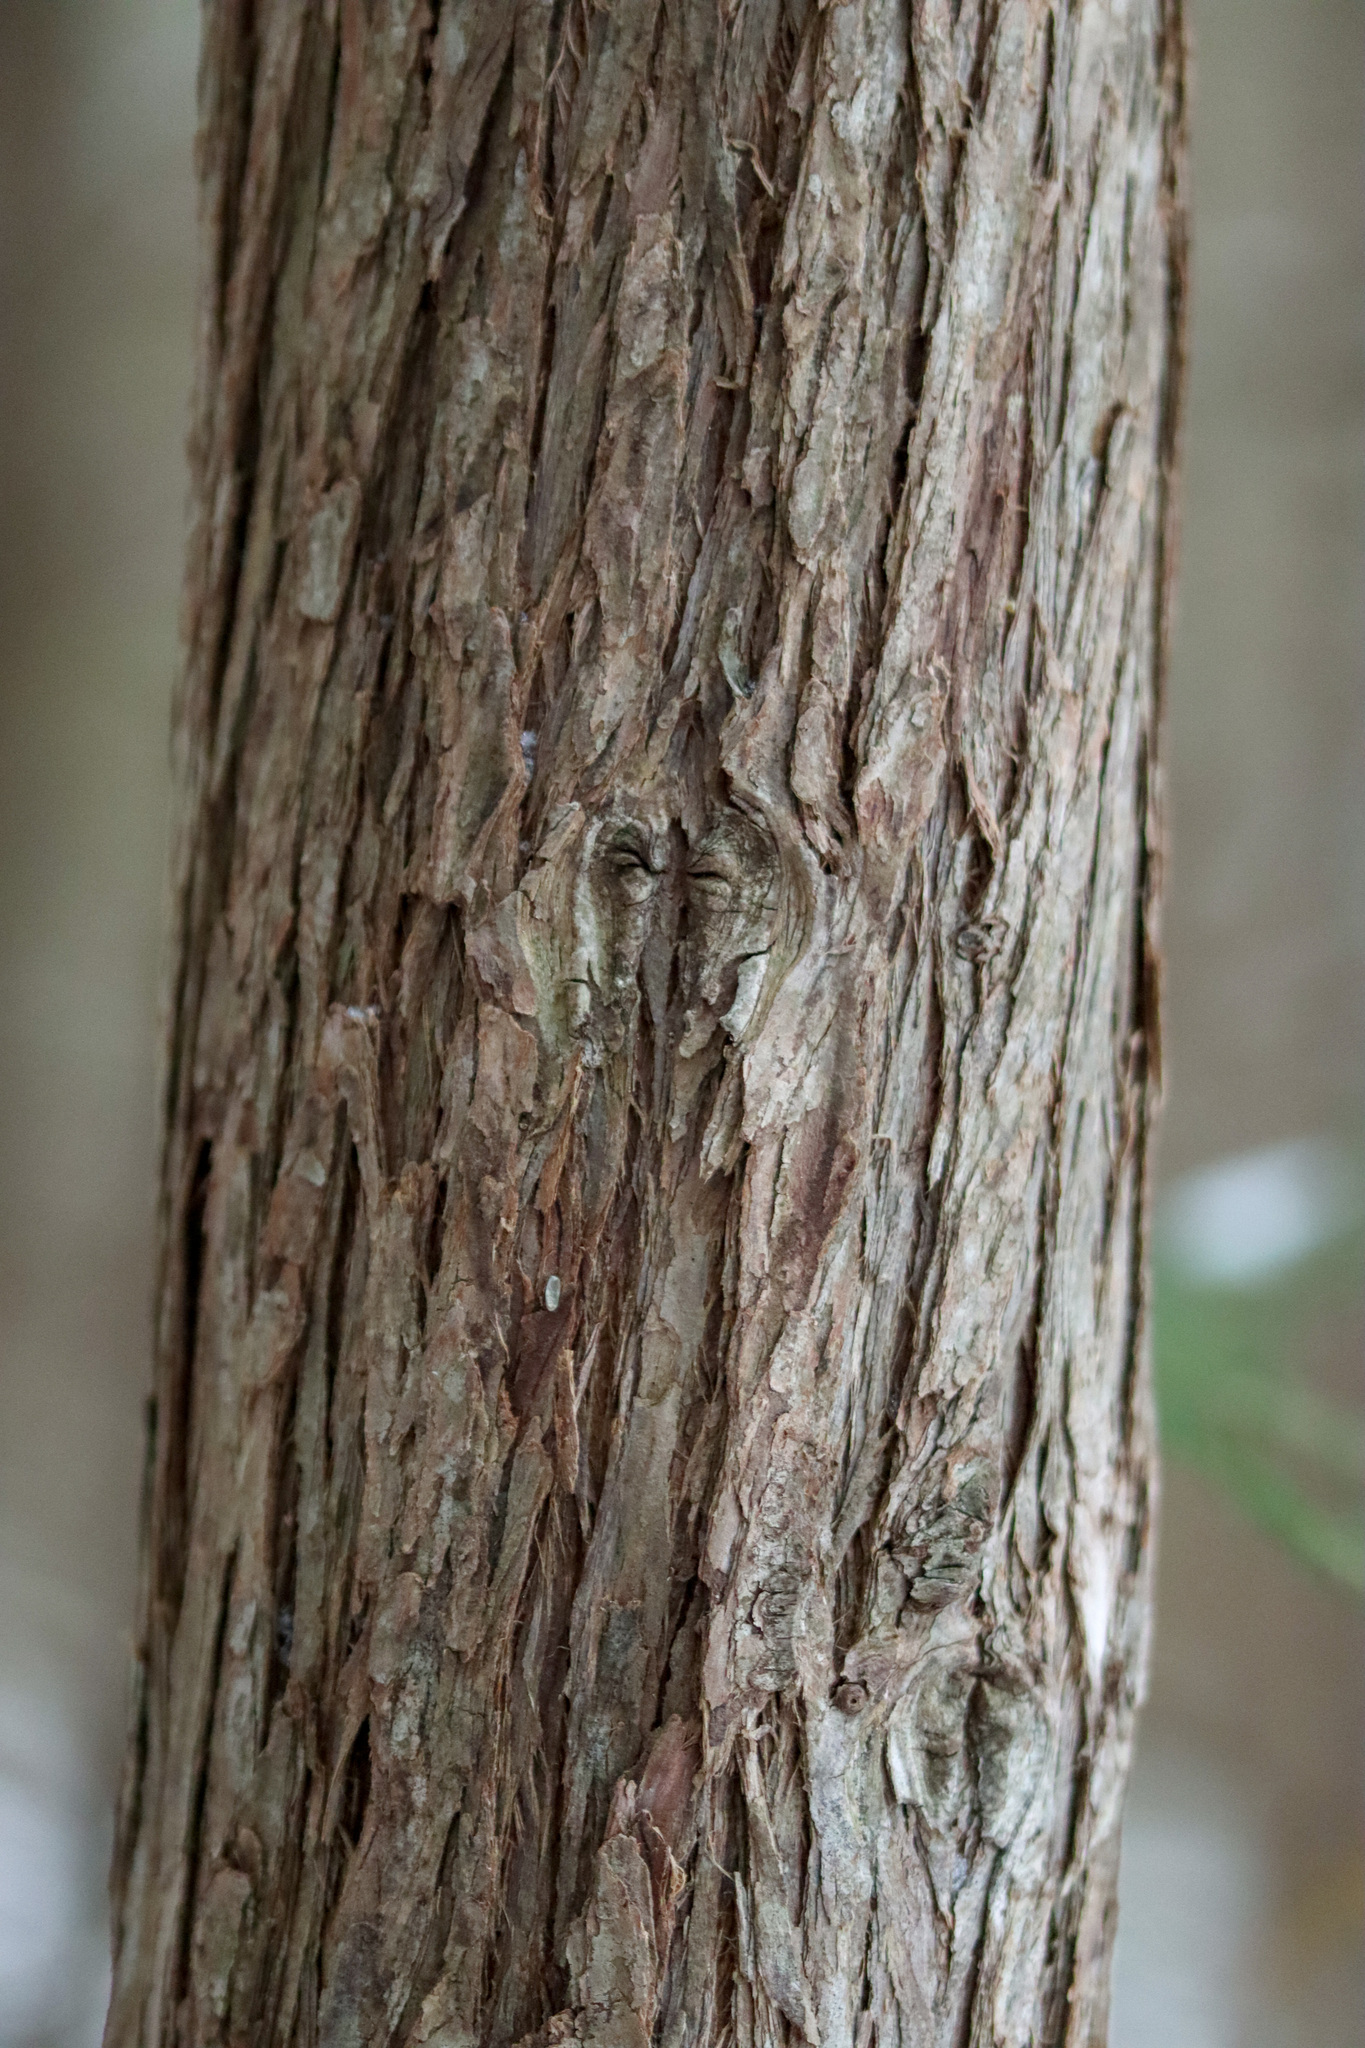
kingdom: Plantae
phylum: Tracheophyta
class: Pinopsida
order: Pinales
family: Cupressaceae
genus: Thuja
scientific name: Thuja occidentalis
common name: Northern white-cedar
